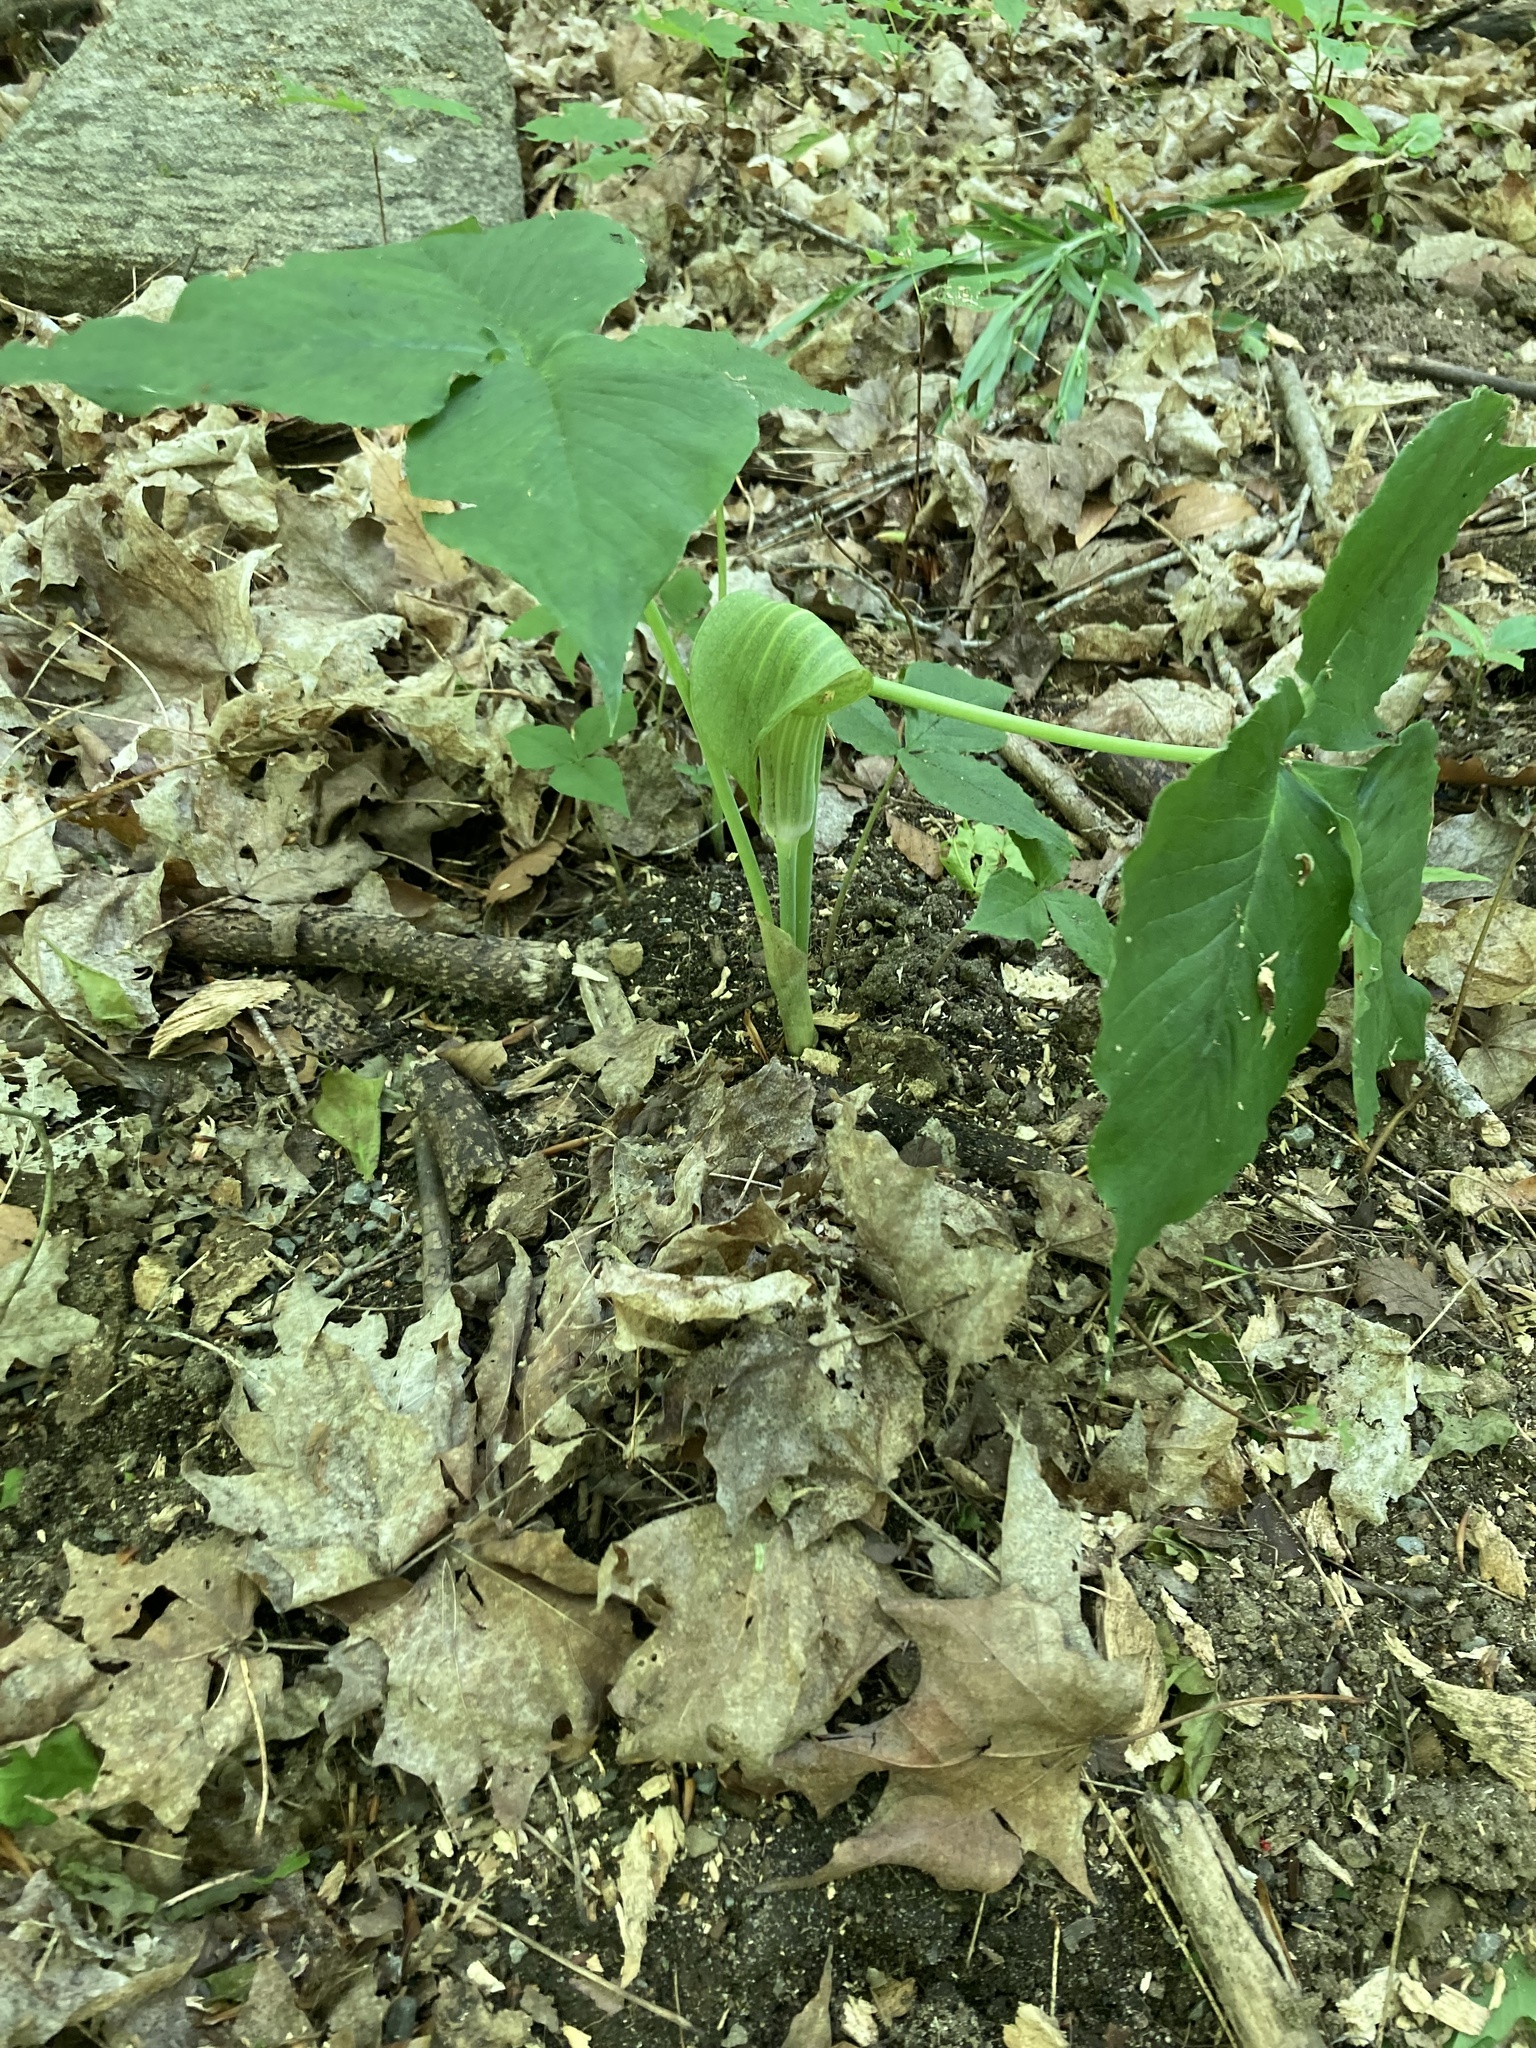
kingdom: Plantae
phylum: Tracheophyta
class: Liliopsida
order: Alismatales
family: Araceae
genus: Arisaema
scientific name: Arisaema triphyllum
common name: Jack-in-the-pulpit
